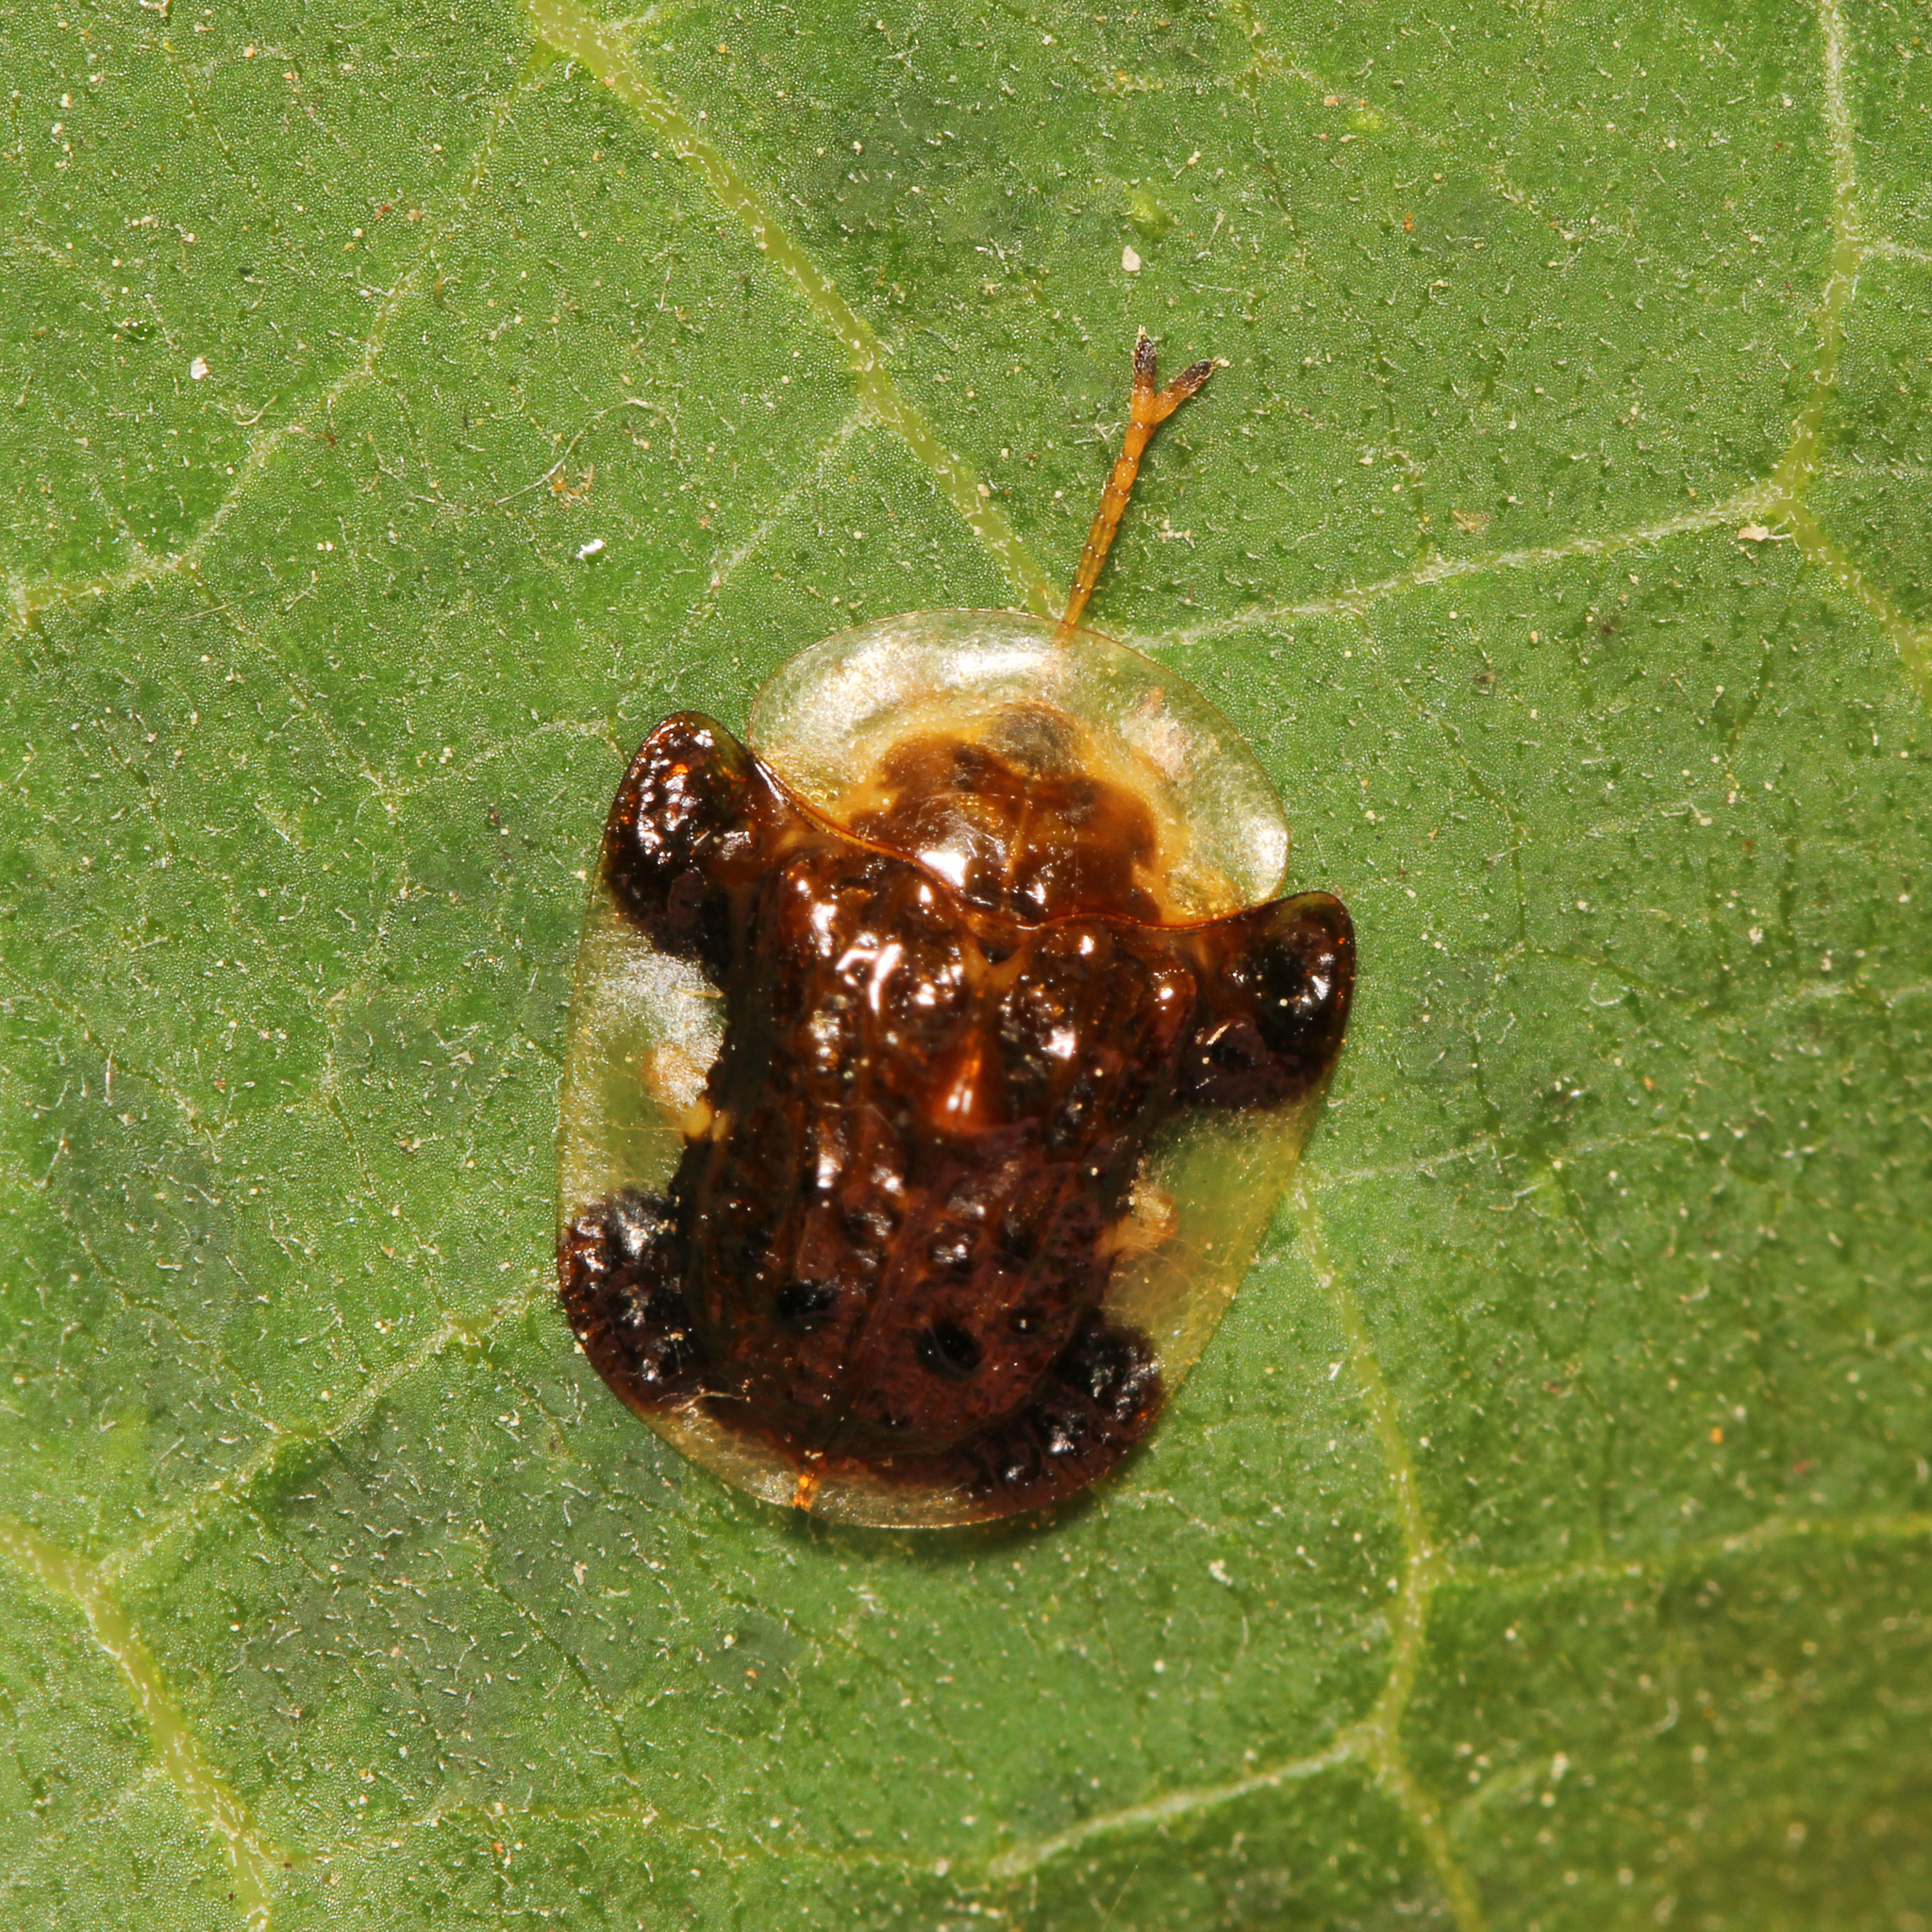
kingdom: Animalia
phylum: Arthropoda
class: Insecta
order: Coleoptera
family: Chrysomelidae
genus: Helocassis
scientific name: Helocassis clavata
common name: Clavate tortoise beetle
